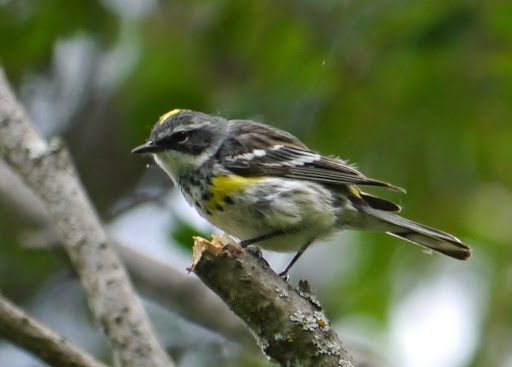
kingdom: Animalia
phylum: Chordata
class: Aves
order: Passeriformes
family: Parulidae
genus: Setophaga
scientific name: Setophaga coronata
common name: Myrtle warbler
